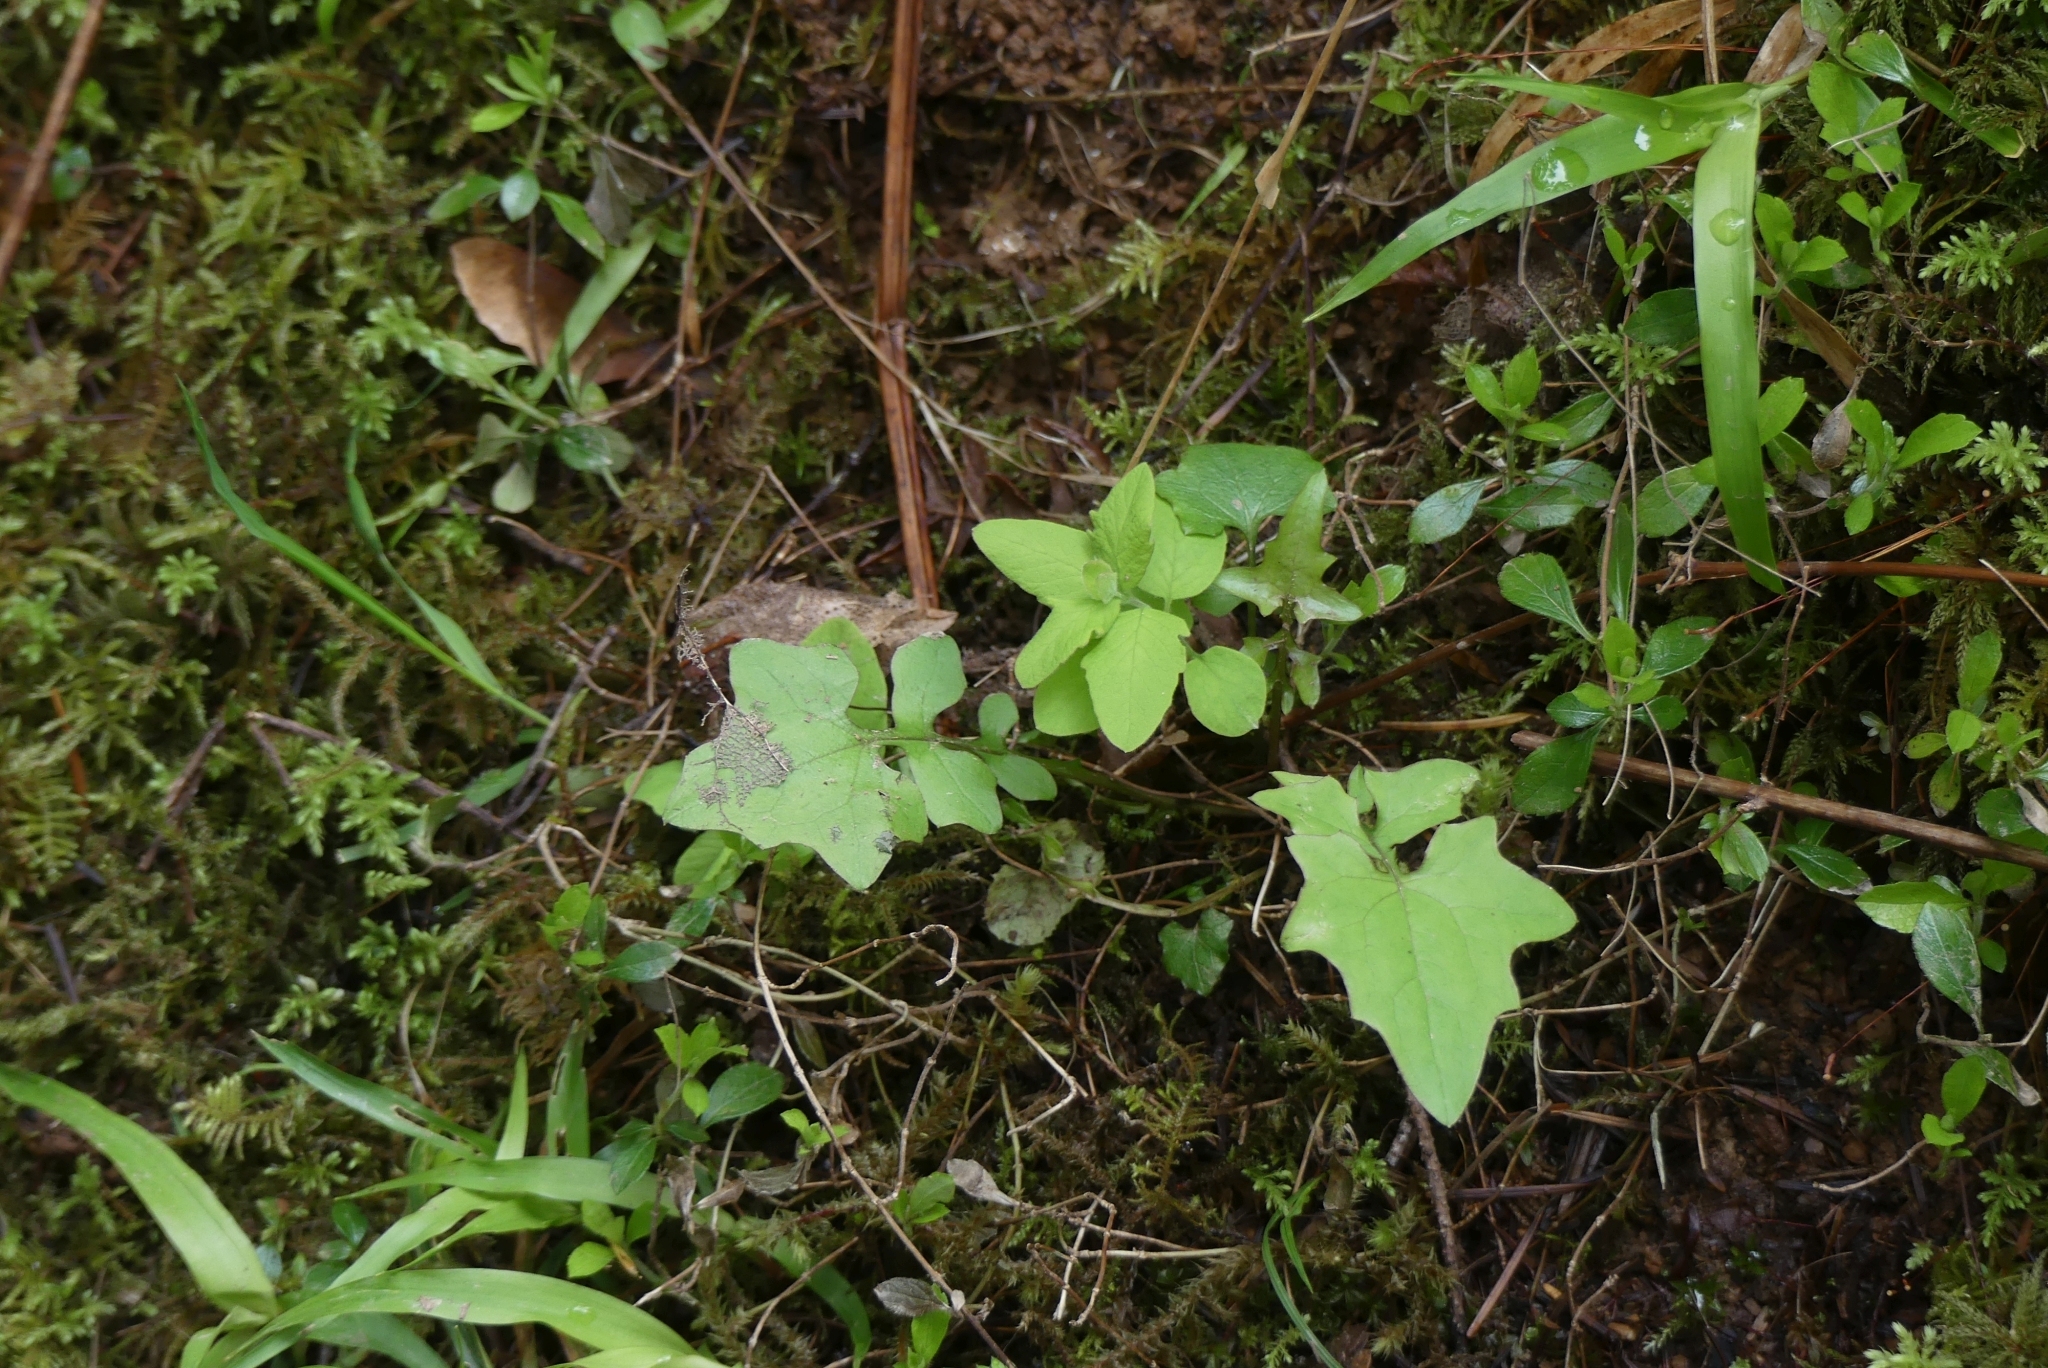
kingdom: Plantae
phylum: Tracheophyta
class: Magnoliopsida
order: Asterales
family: Asteraceae
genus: Mycelis
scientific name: Mycelis muralis
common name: Wall lettuce
